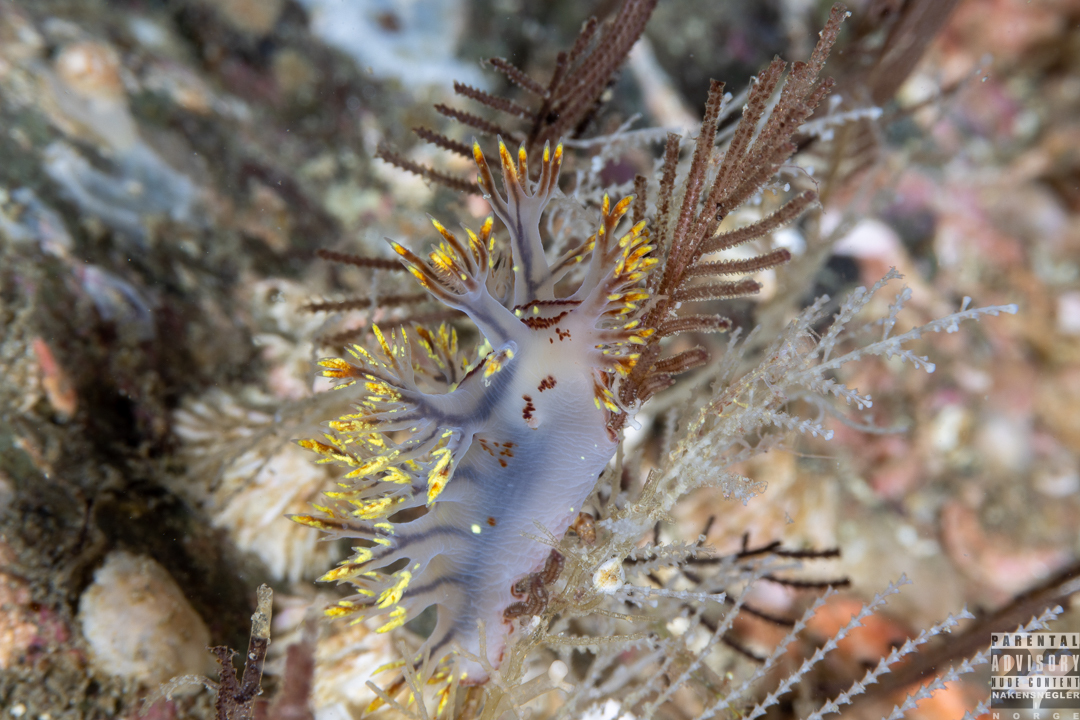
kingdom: Animalia
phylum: Mollusca
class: Gastropoda
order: Nudibranchia
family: Dendronotidae
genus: Dendronotus
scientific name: Dendronotus yrjargul
